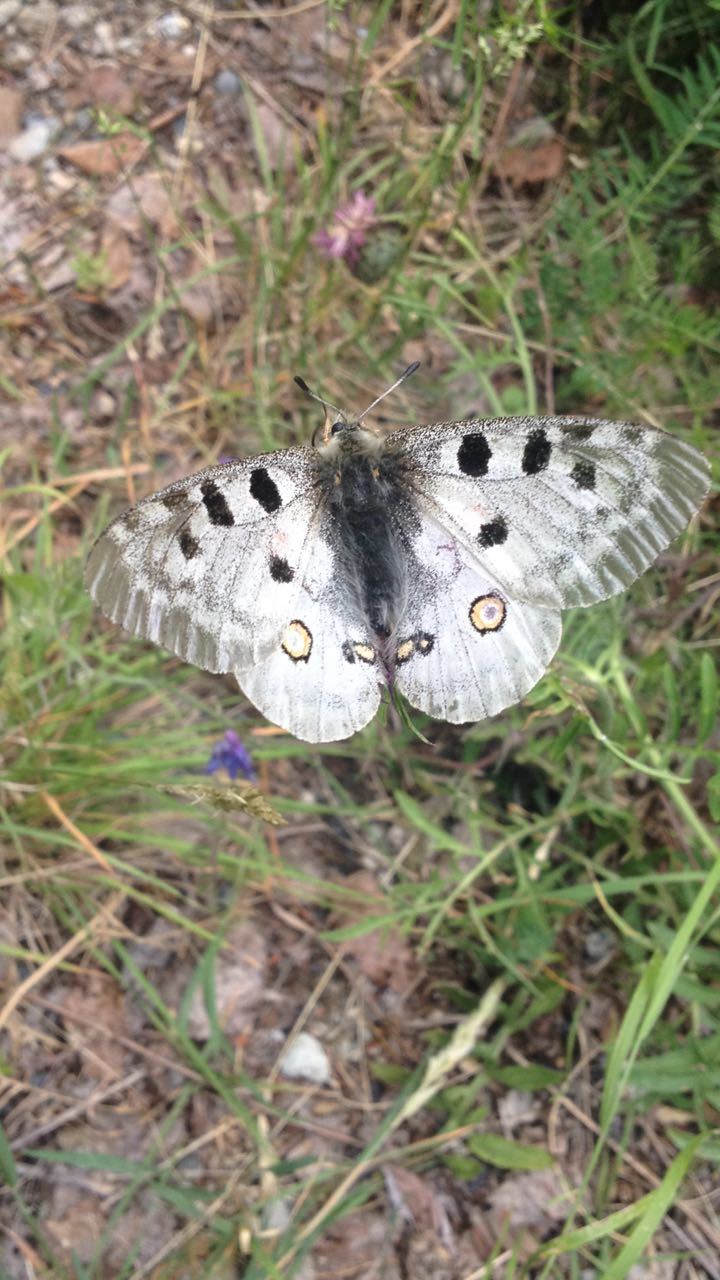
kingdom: Animalia
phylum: Arthropoda
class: Insecta
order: Lepidoptera
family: Papilionidae
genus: Parnassius
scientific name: Parnassius apollo
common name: Apollo
